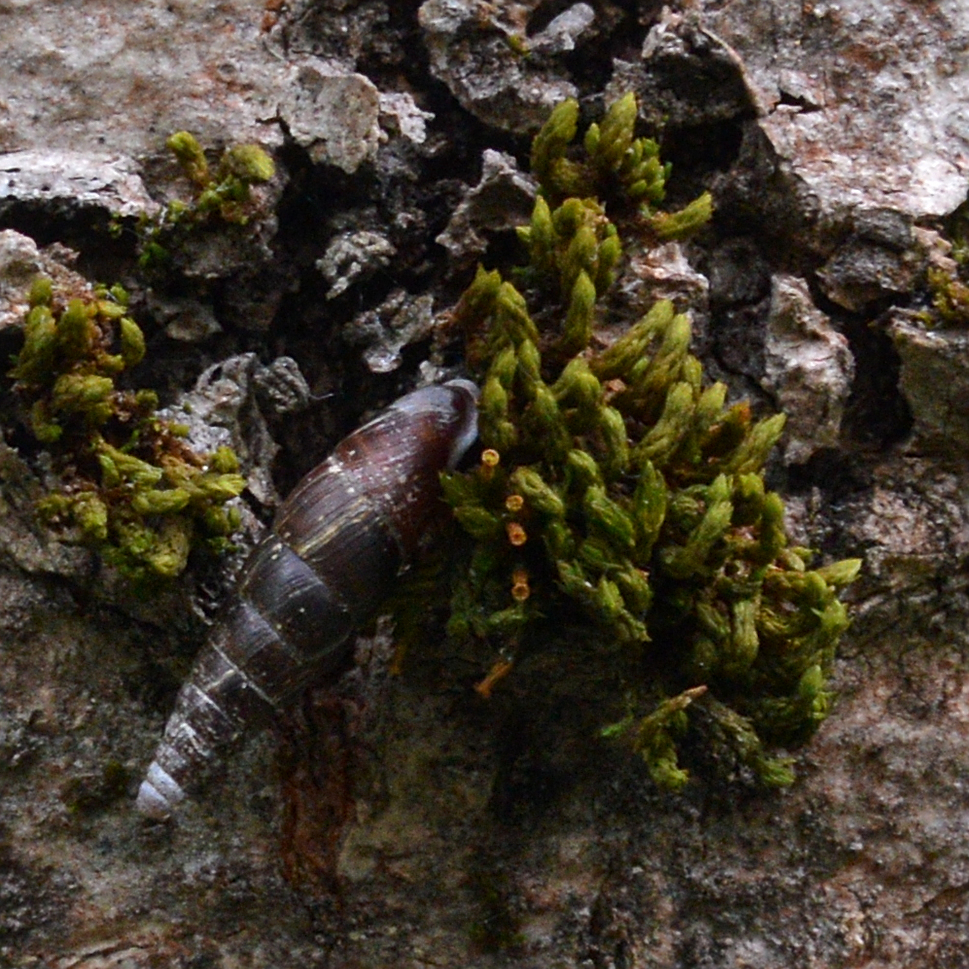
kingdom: Animalia
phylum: Mollusca
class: Gastropoda
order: Stylommatophora
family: Clausiliidae
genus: Cochlodina
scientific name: Cochlodina laminata
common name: Plaited door snail
